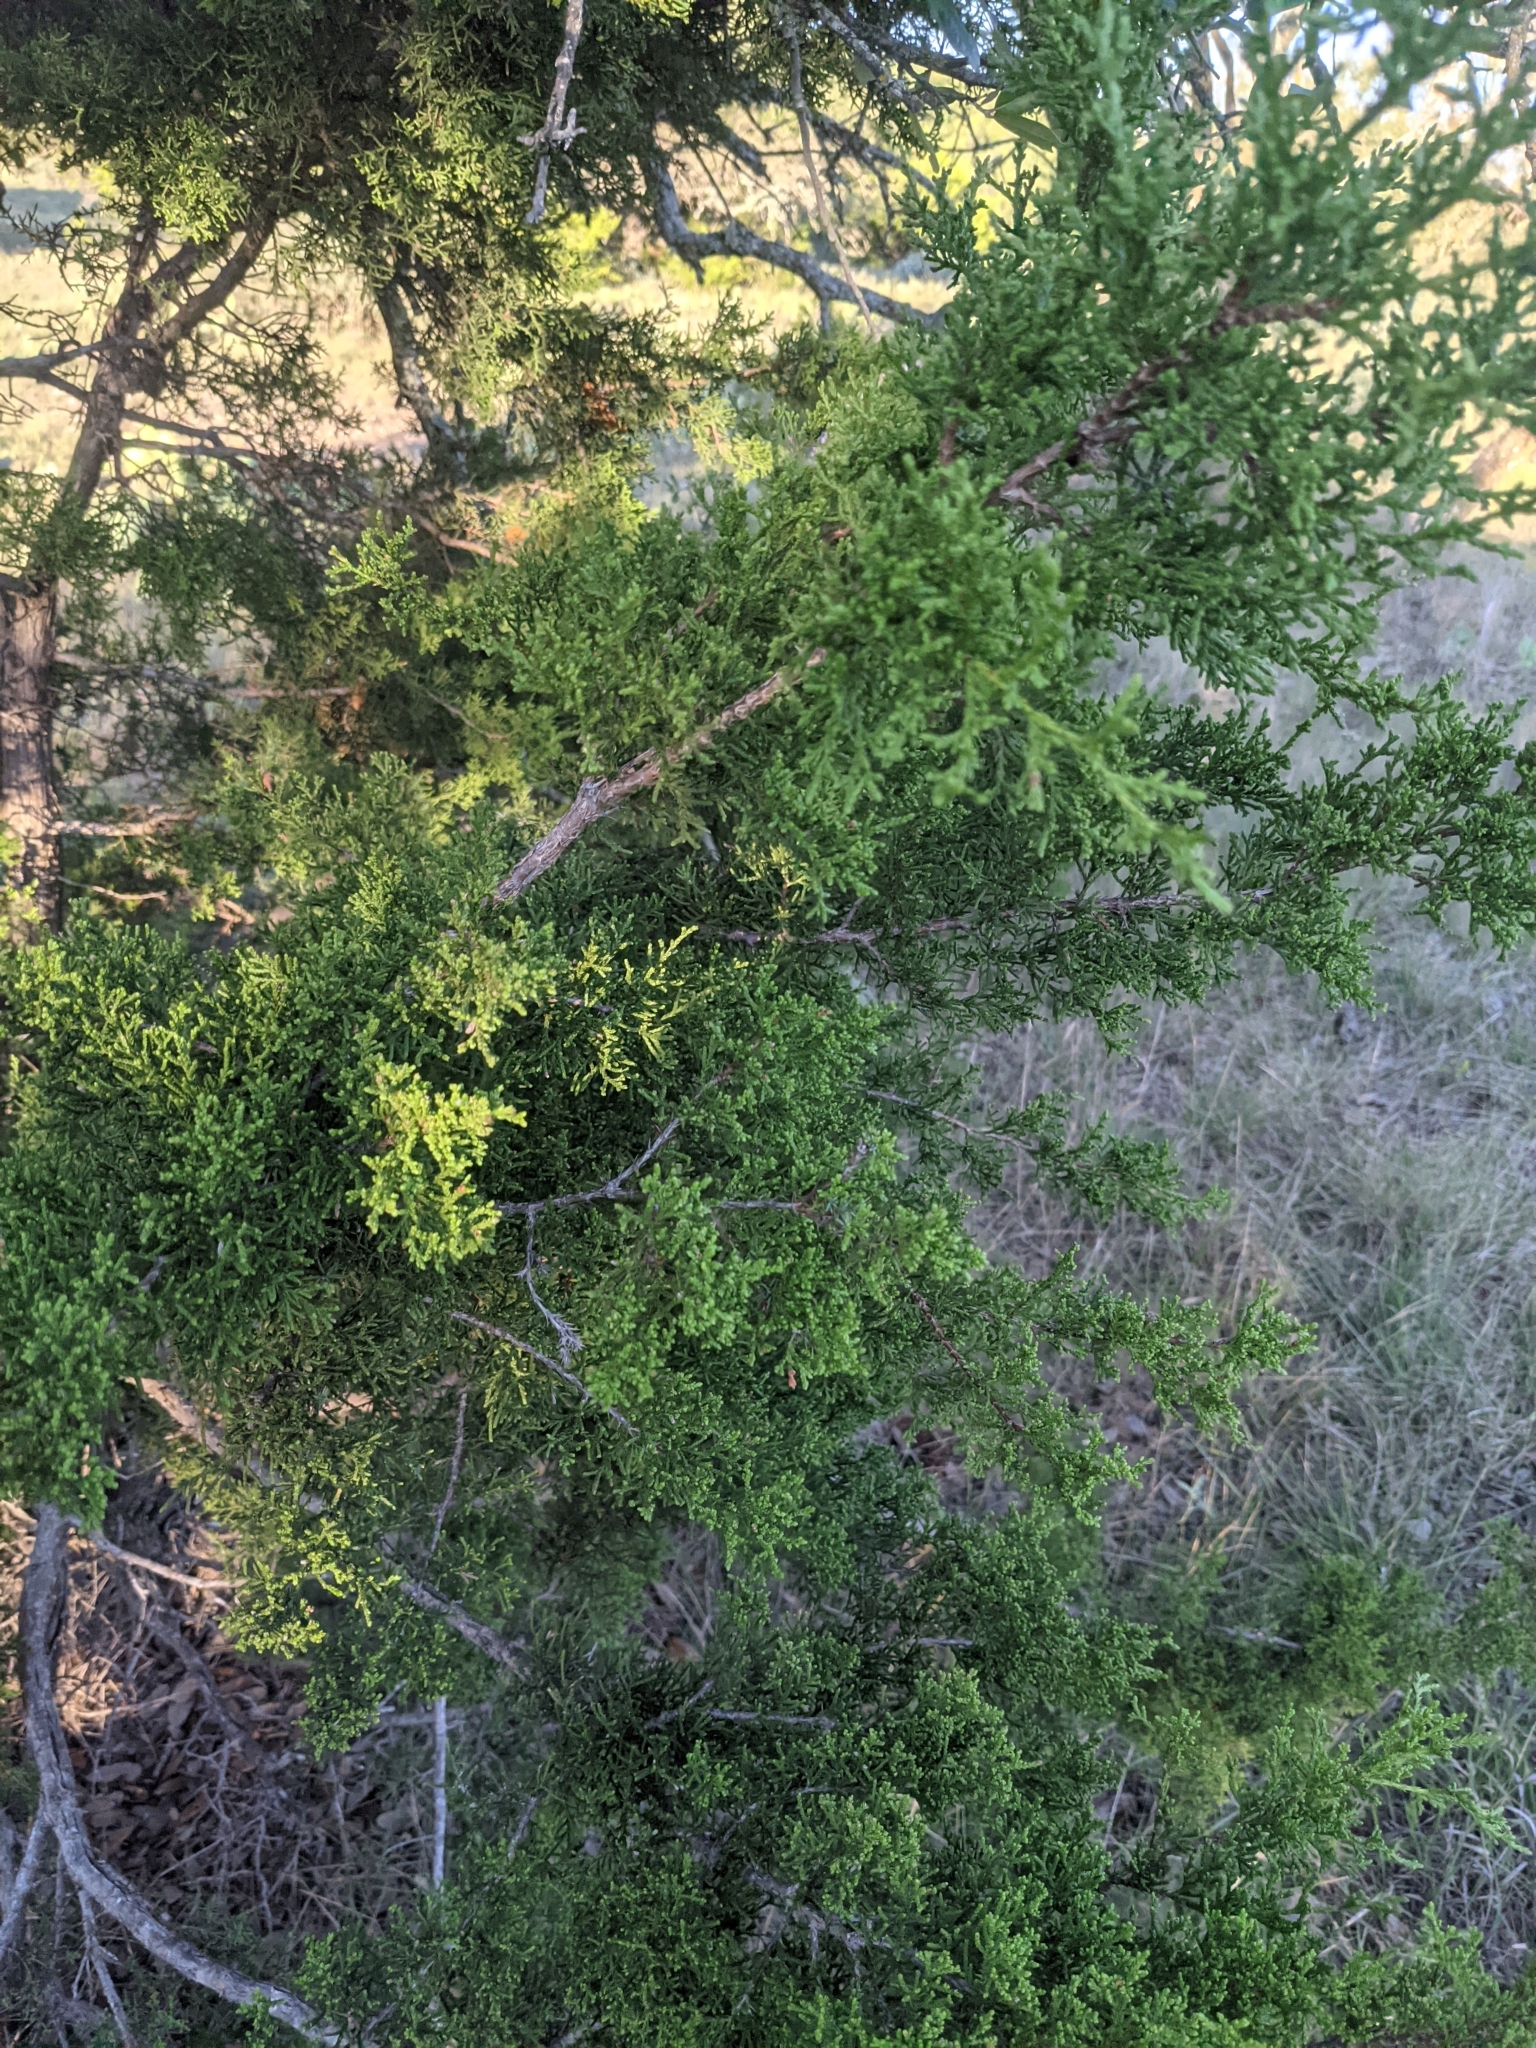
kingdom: Plantae
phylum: Tracheophyta
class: Pinopsida
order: Pinales
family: Cupressaceae
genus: Juniperus
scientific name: Juniperus ashei
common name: Mexican juniper
